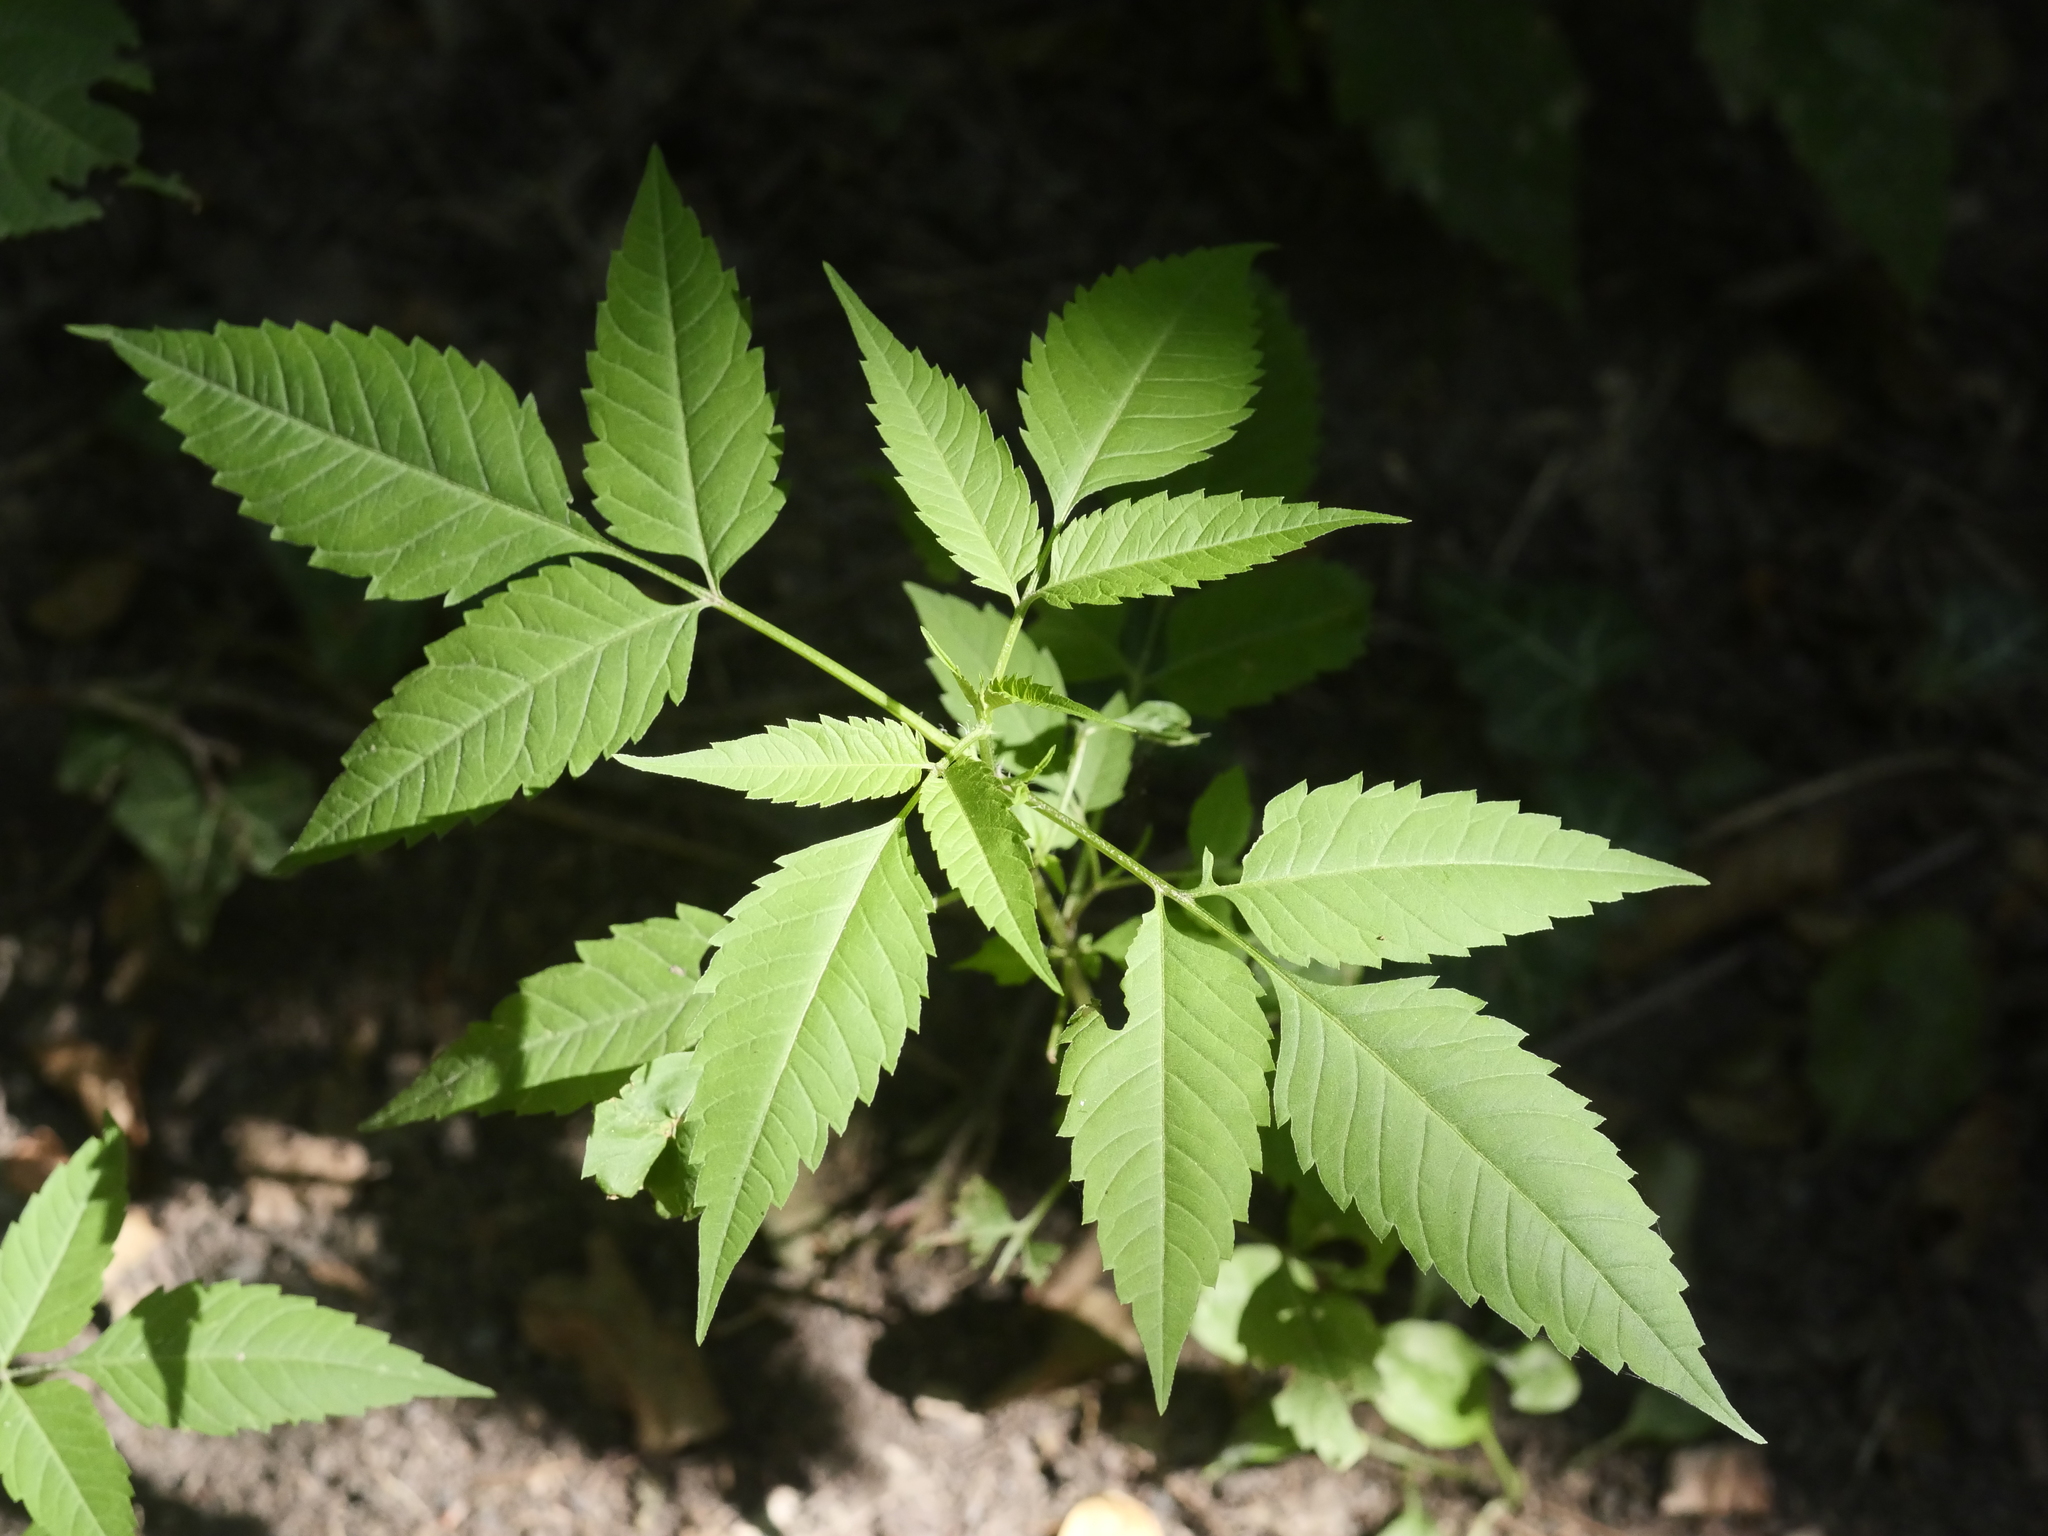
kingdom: Plantae
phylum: Tracheophyta
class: Magnoliopsida
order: Asterales
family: Asteraceae
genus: Bidens
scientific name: Bidens frondosa
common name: Beggarticks
